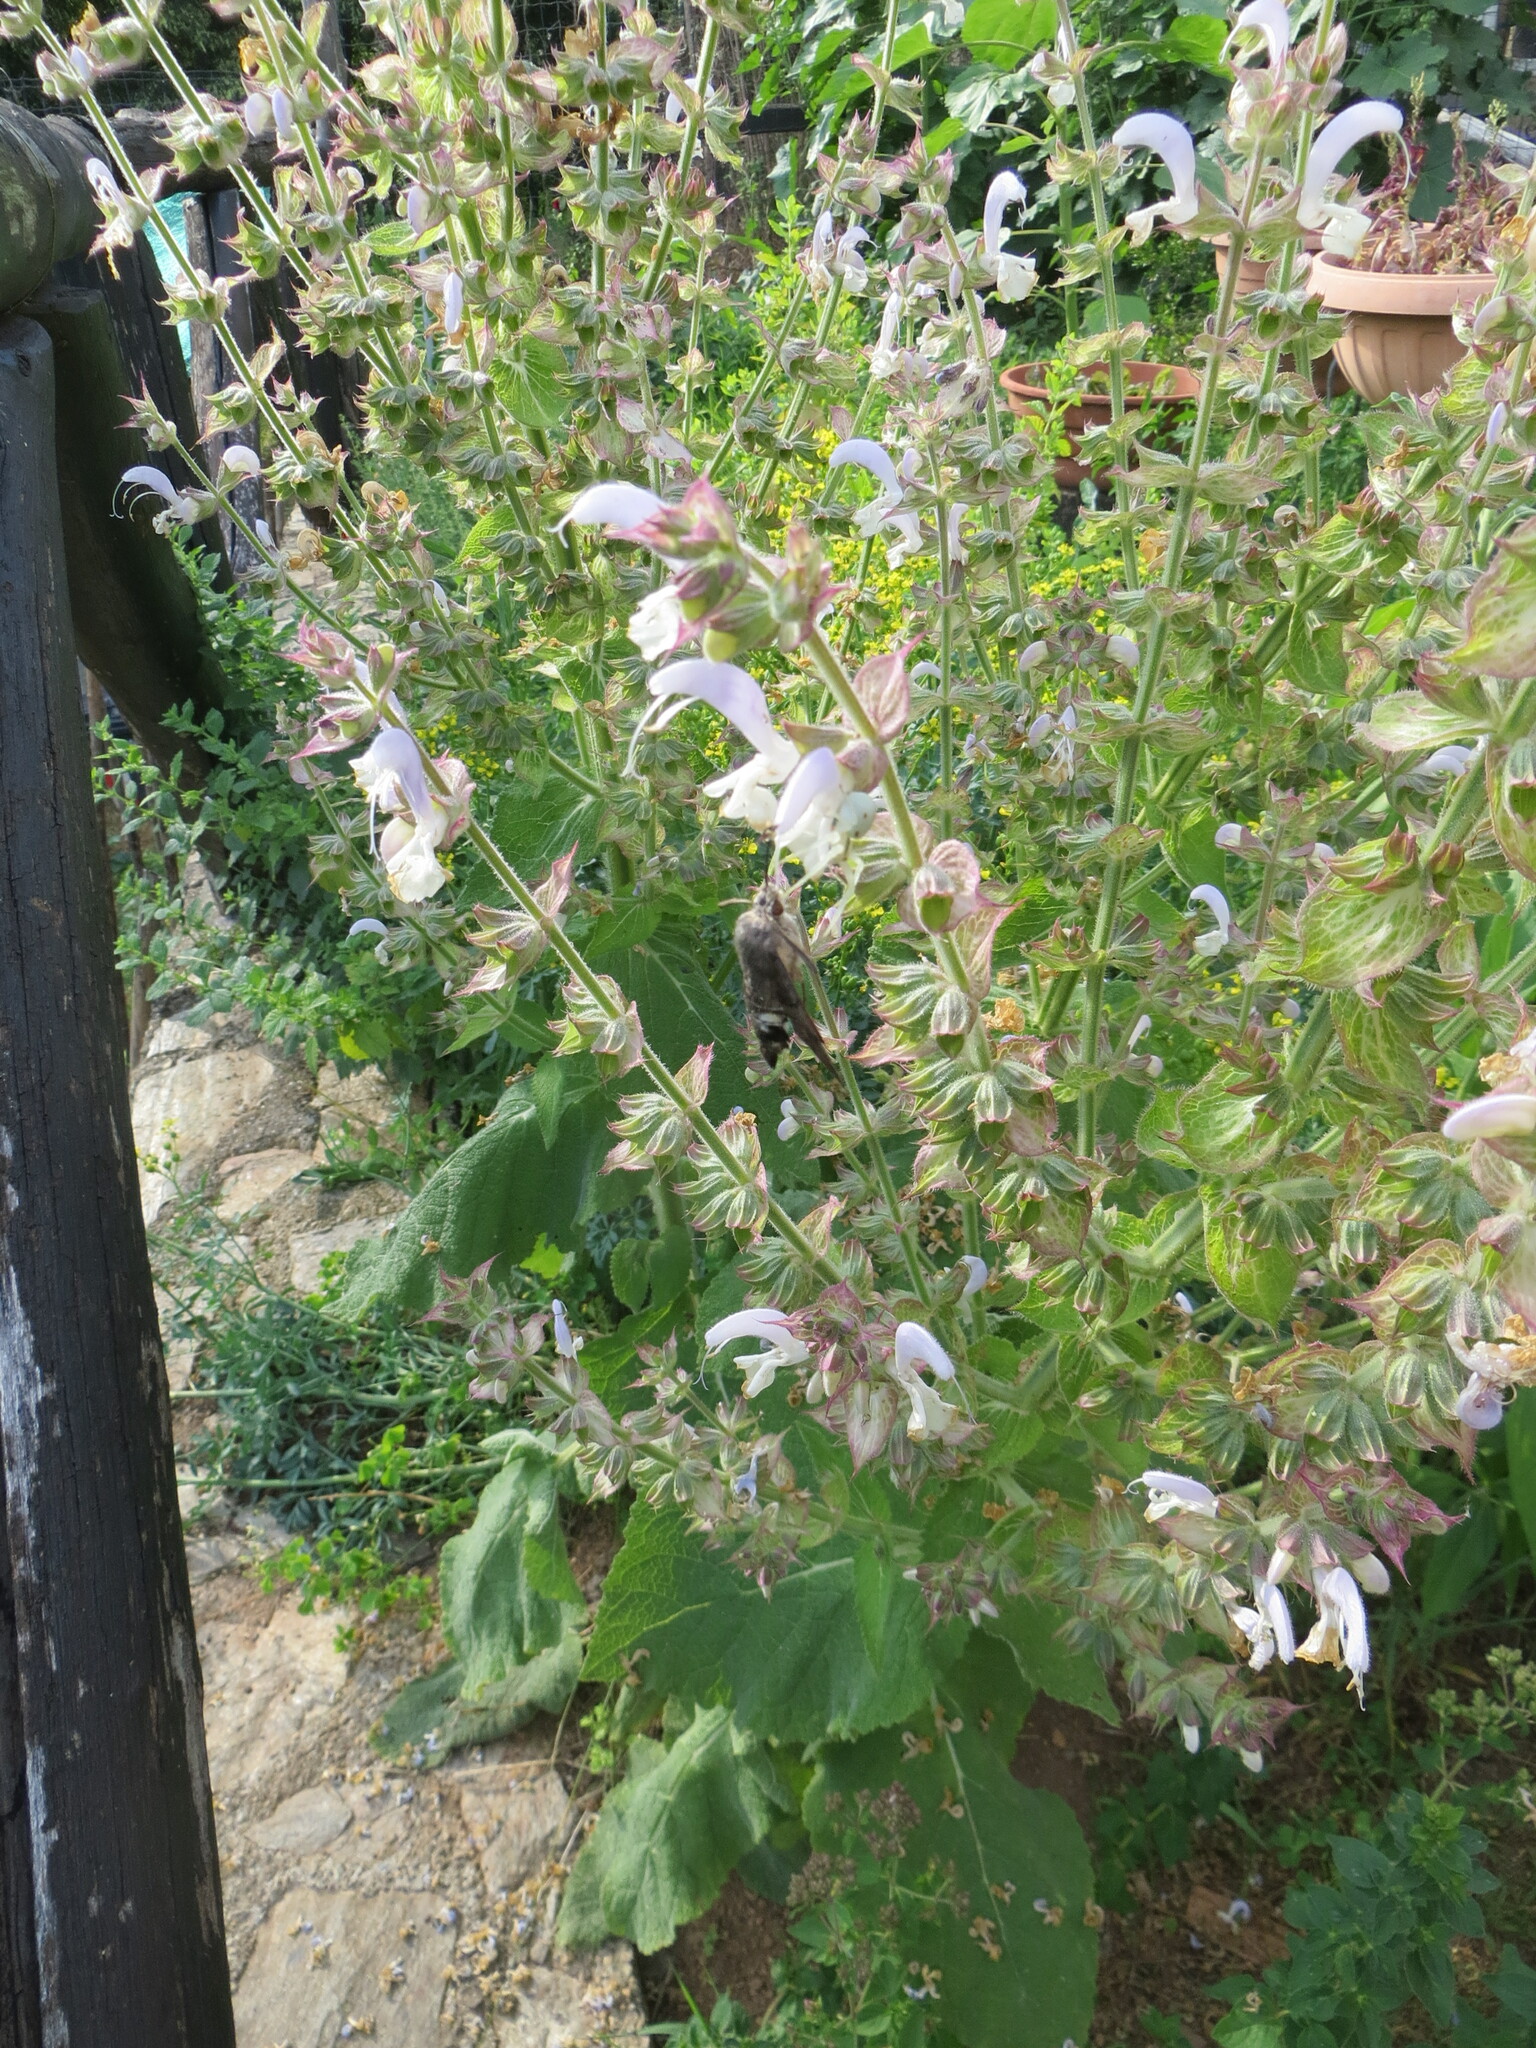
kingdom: Animalia
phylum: Arthropoda
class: Insecta
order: Lepidoptera
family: Sphingidae
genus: Macroglossum
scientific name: Macroglossum stellatarum
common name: Humming-bird hawk-moth
